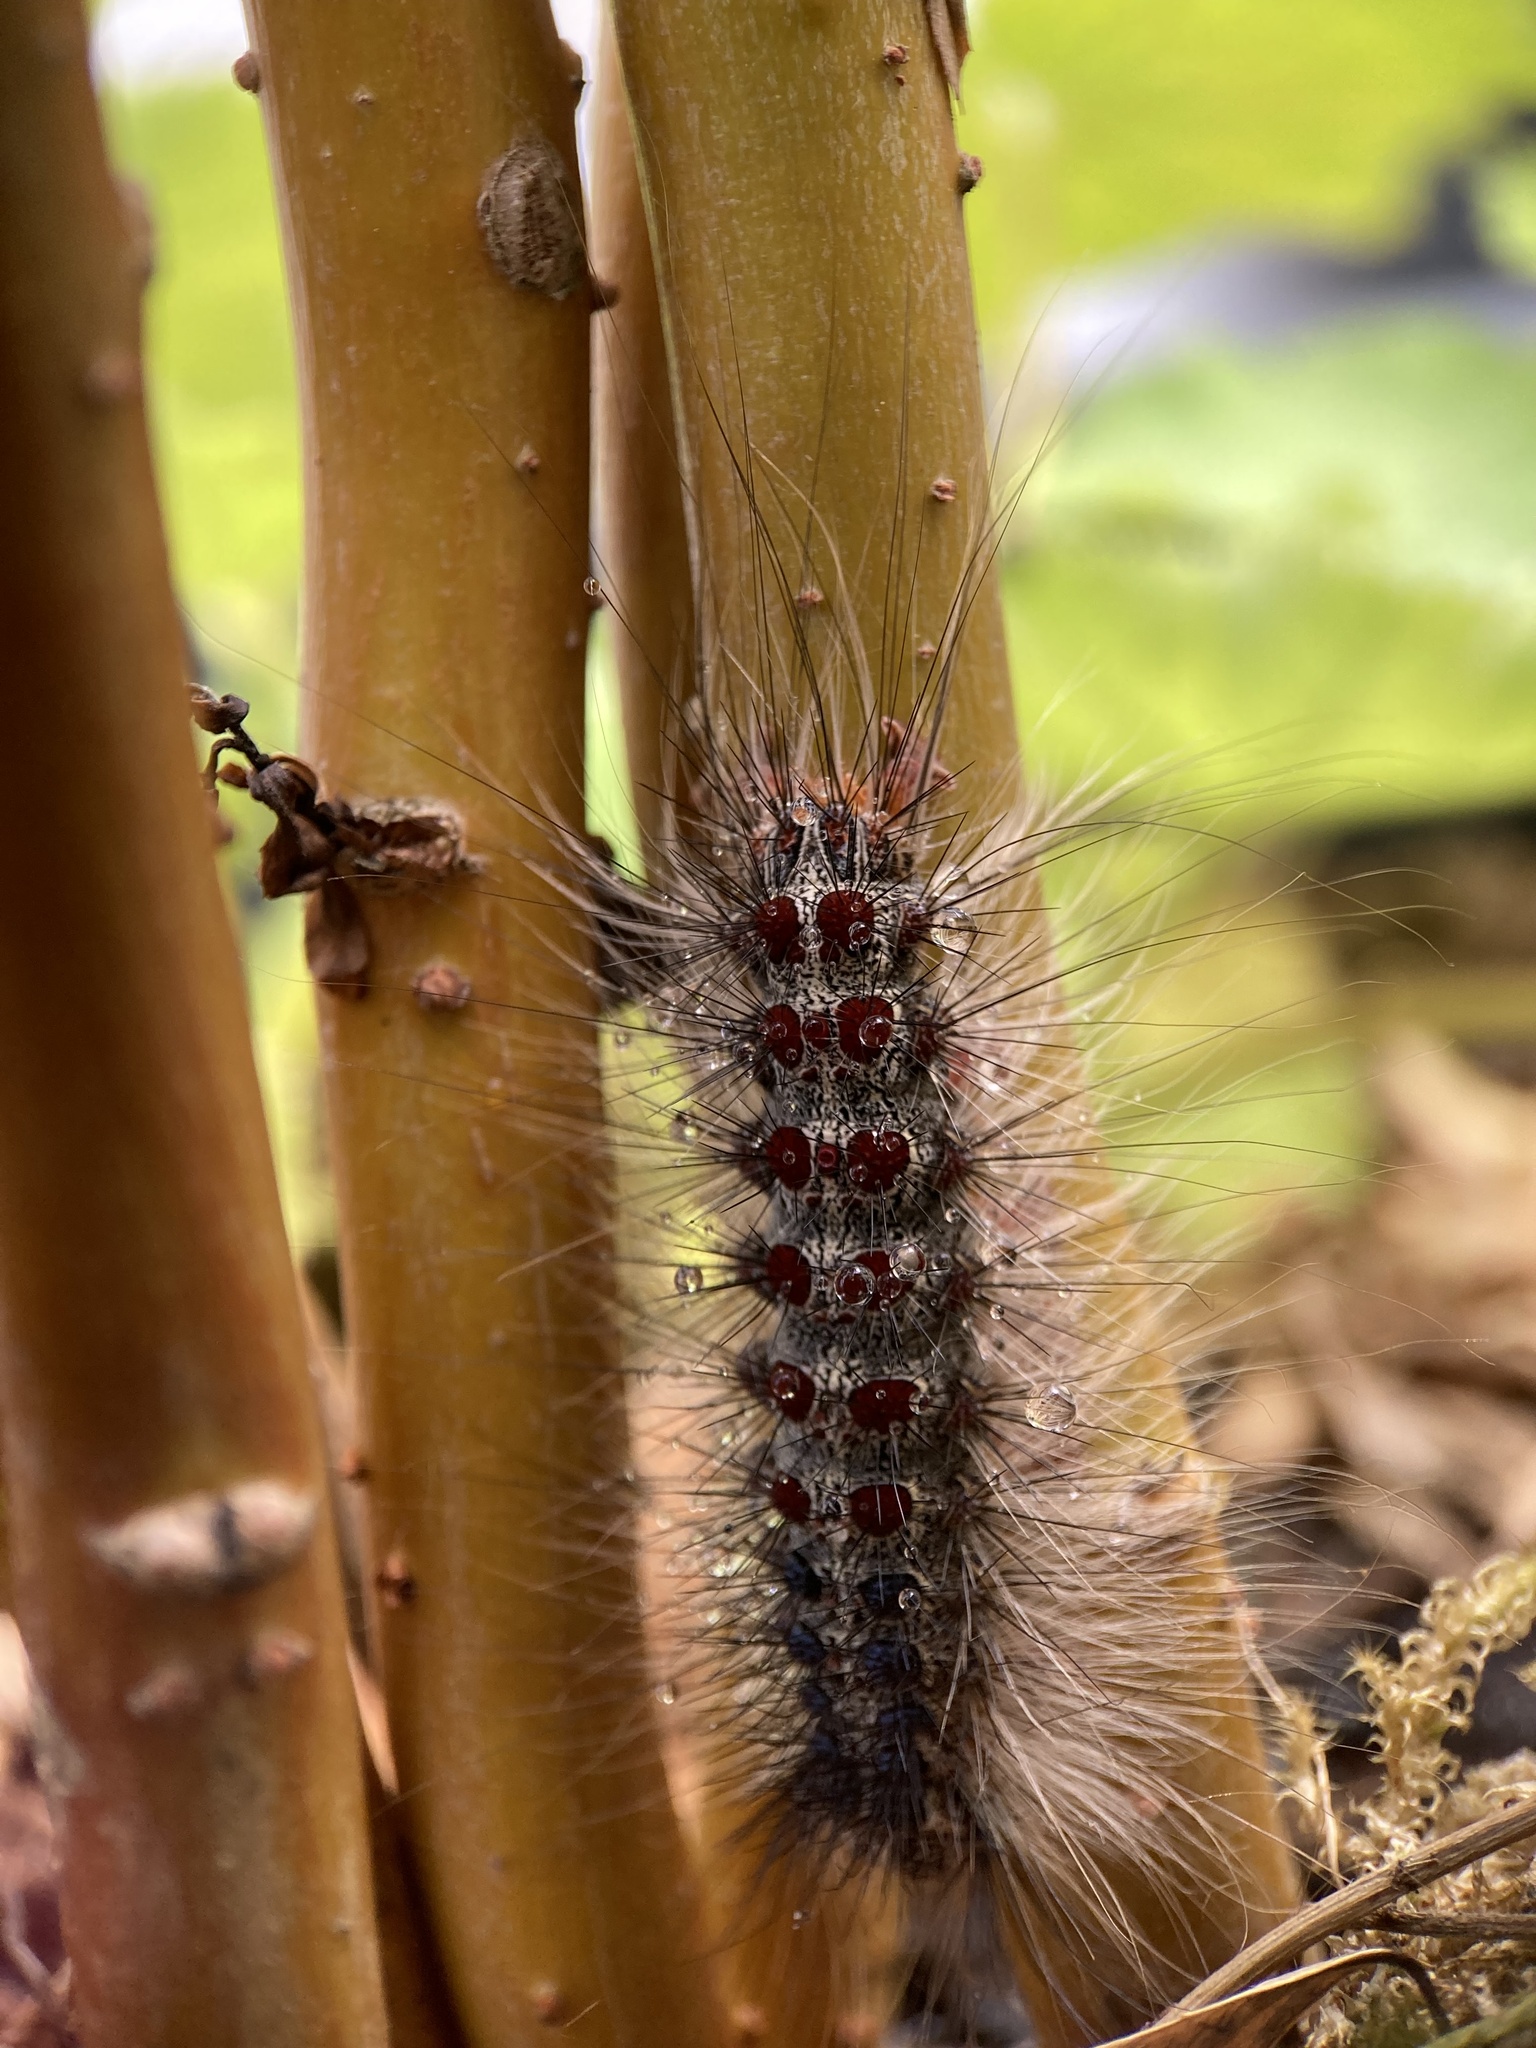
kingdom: Animalia
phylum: Arthropoda
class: Insecta
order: Lepidoptera
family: Erebidae
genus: Lymantria
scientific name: Lymantria dispar
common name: Gypsy moth
